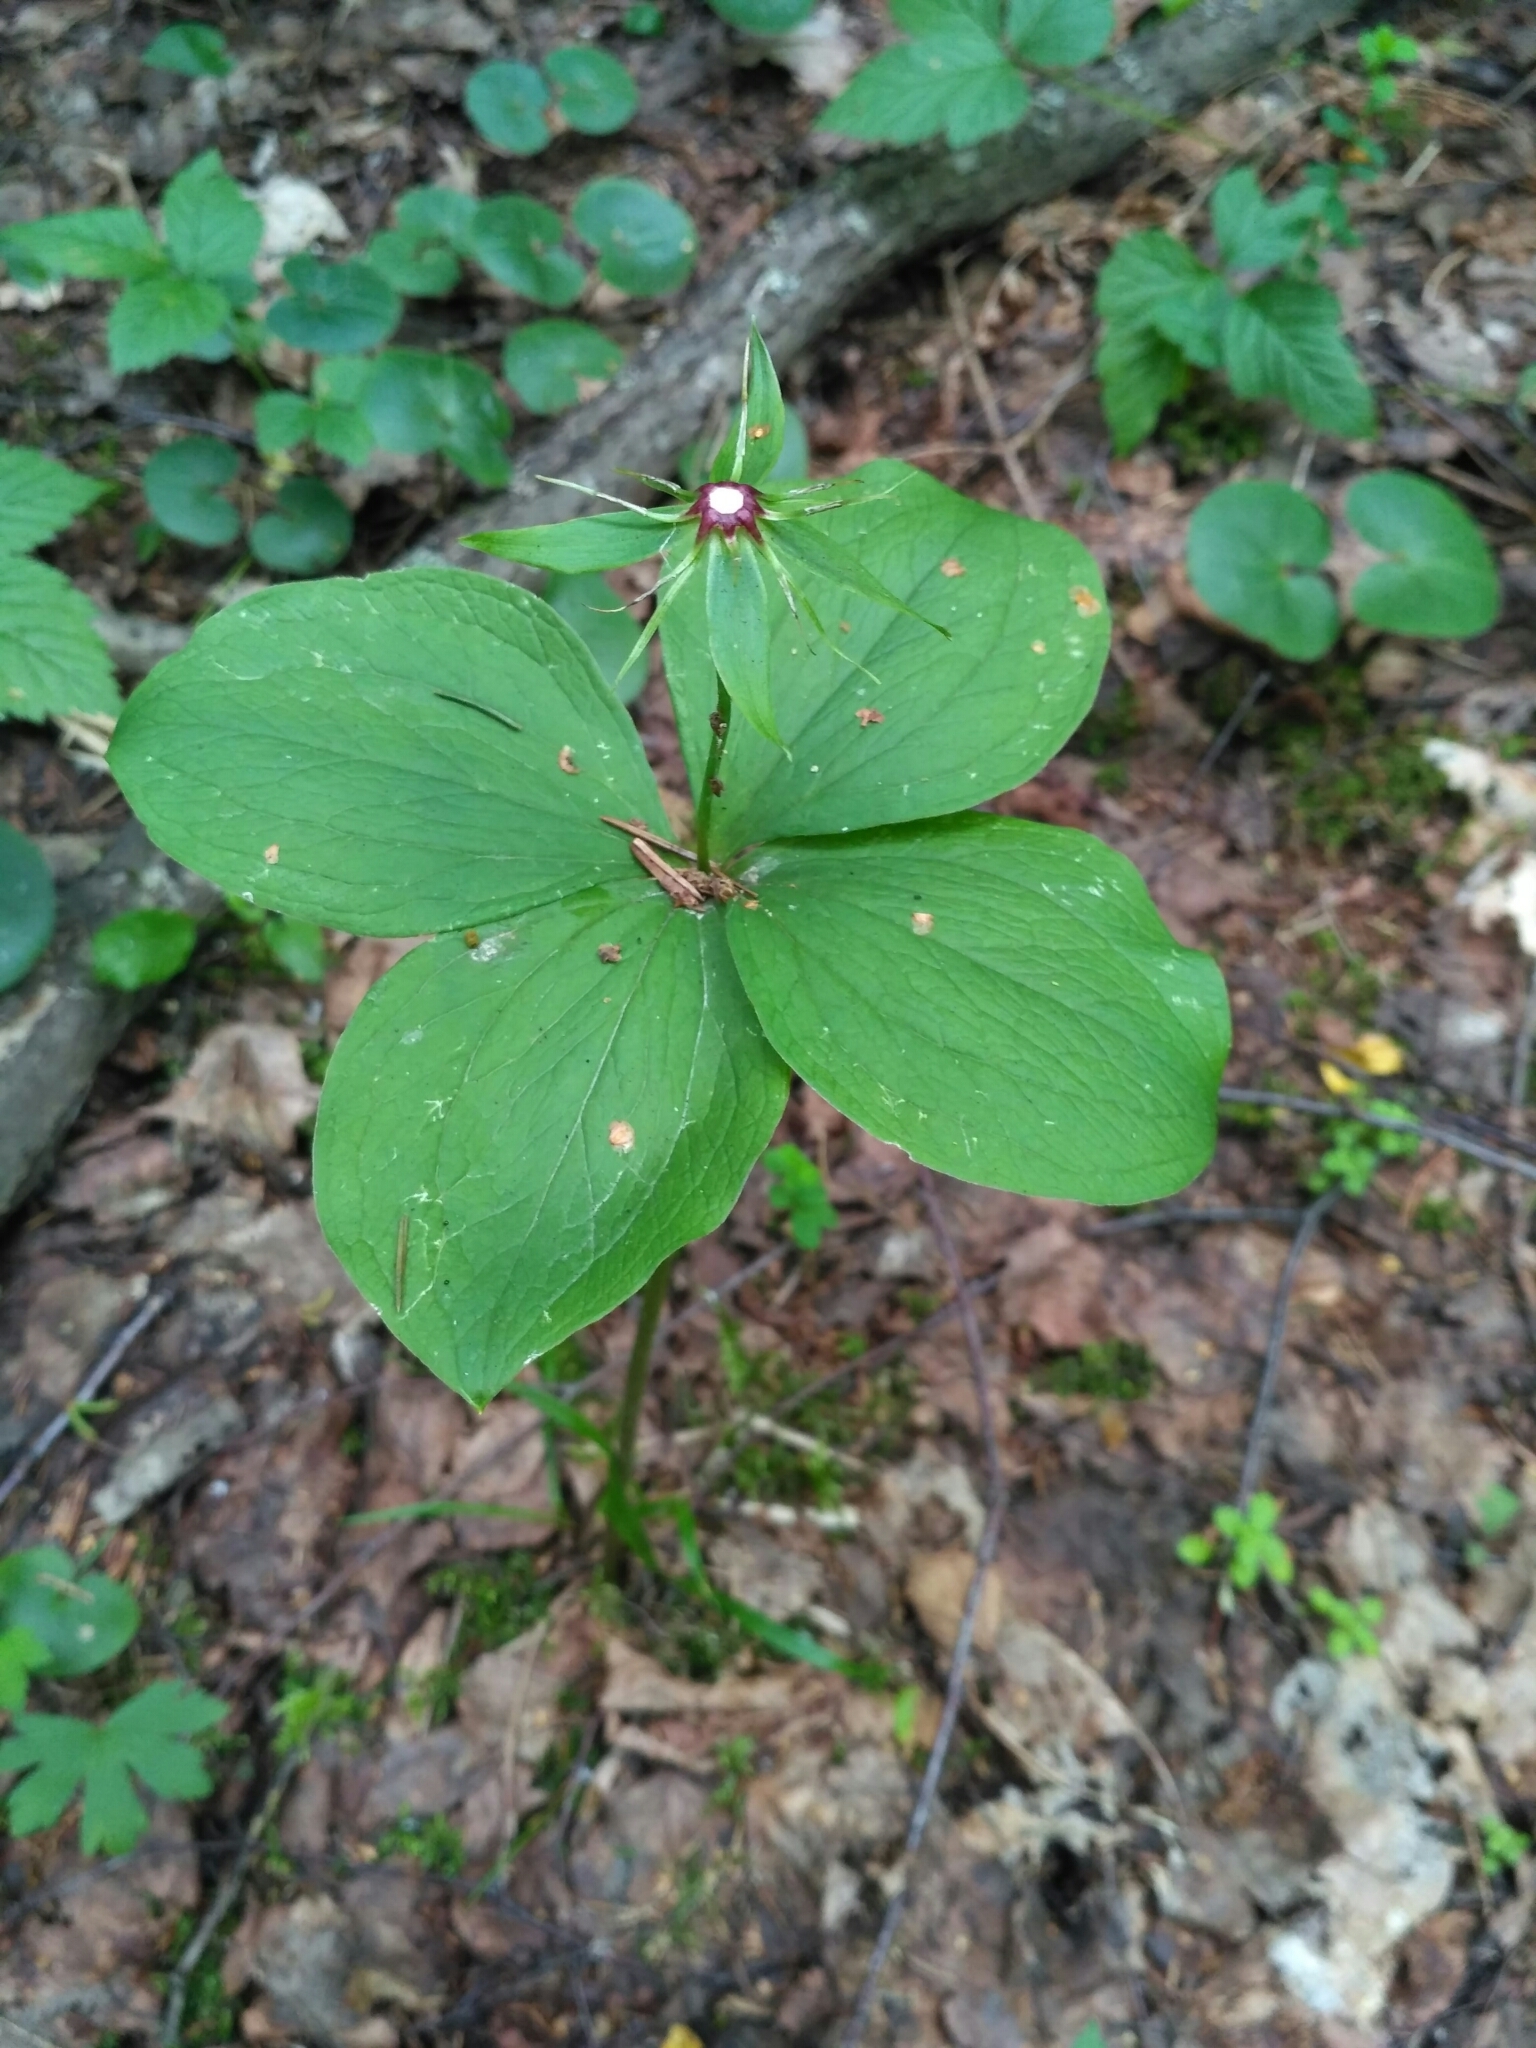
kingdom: Plantae
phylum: Tracheophyta
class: Liliopsida
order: Liliales
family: Melanthiaceae
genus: Paris
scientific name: Paris quadrifolia
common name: Herb-paris
